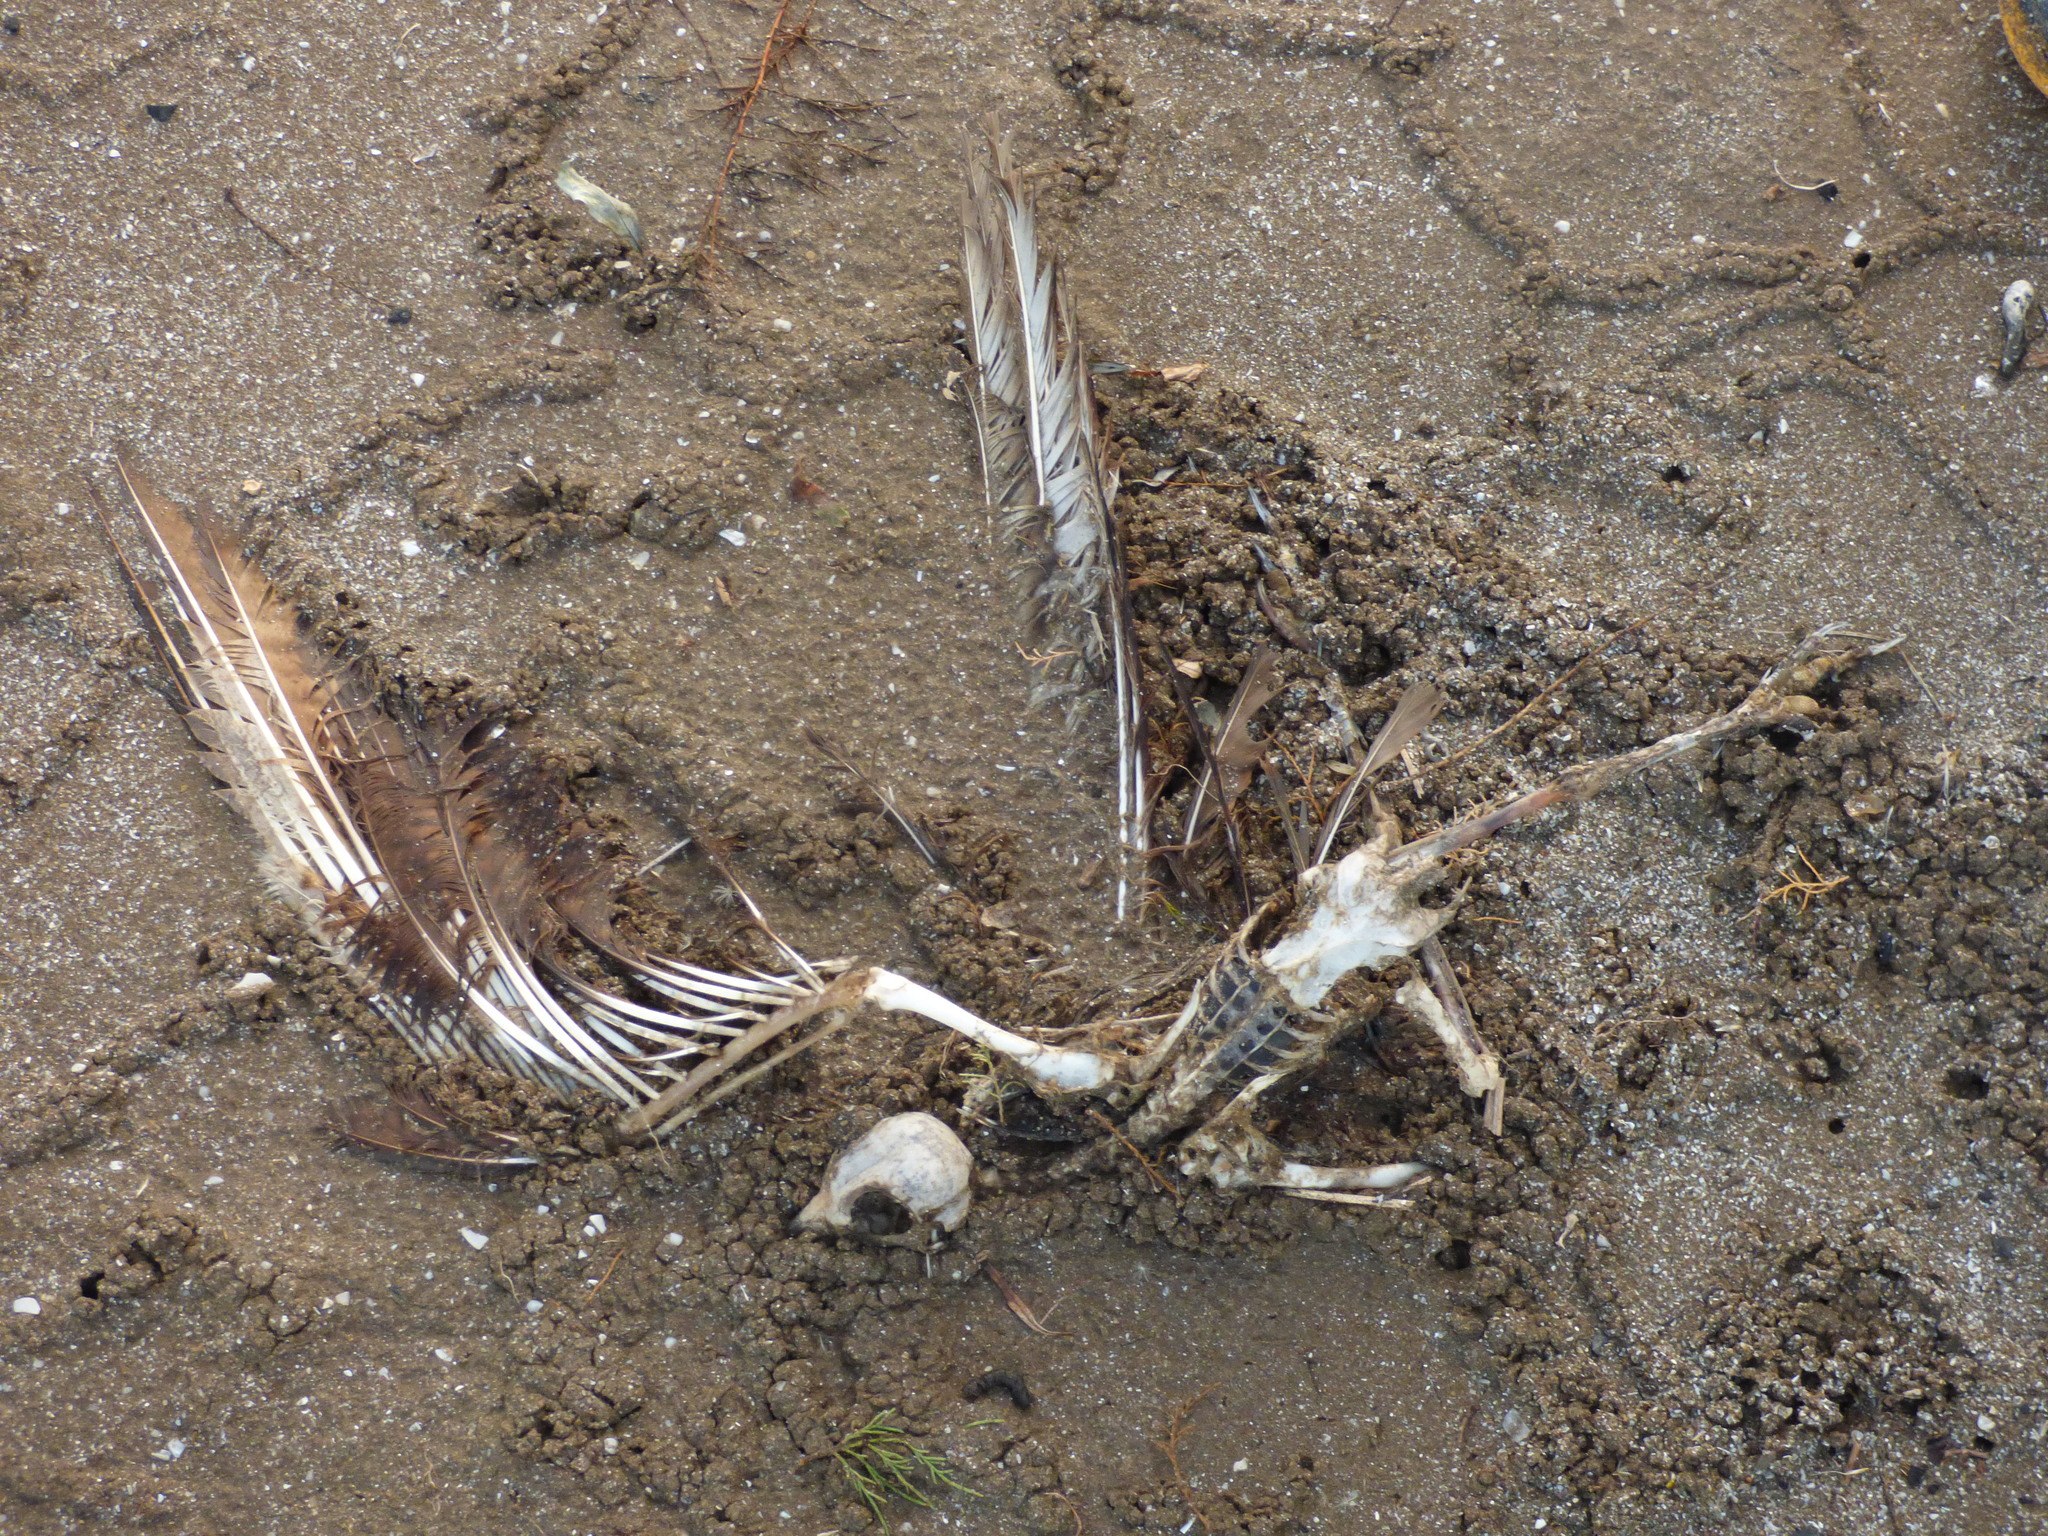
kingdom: Animalia
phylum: Chordata
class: Aves
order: Falconiformes
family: Falconidae
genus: Daptrius
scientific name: Daptrius
